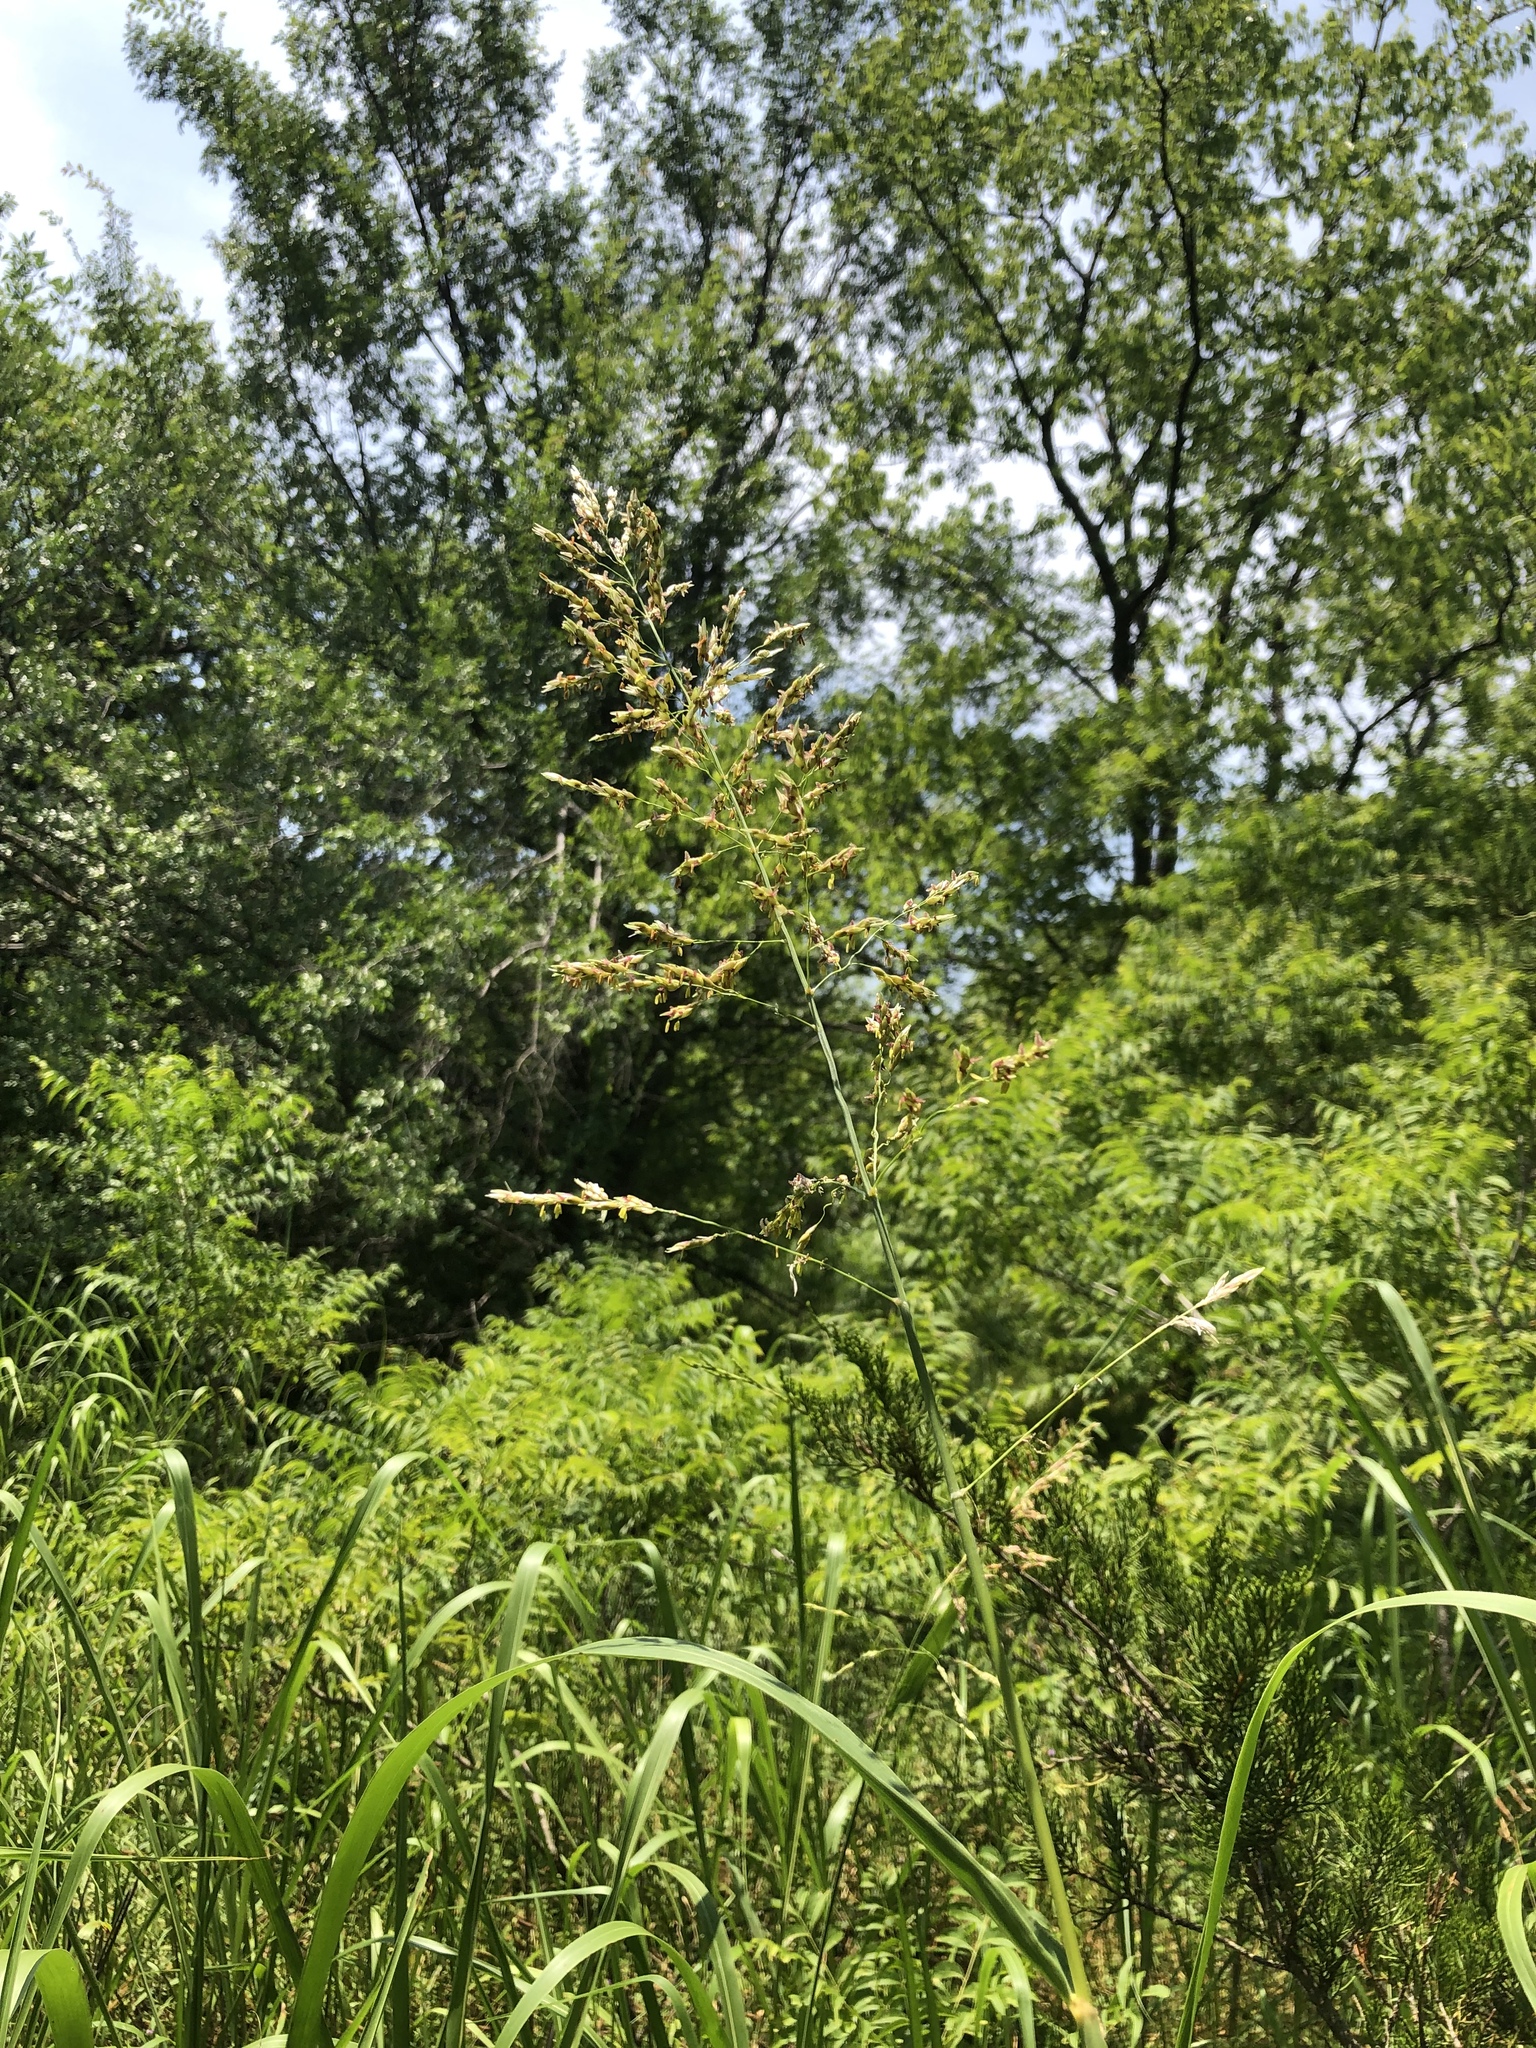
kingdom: Plantae
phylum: Tracheophyta
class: Liliopsida
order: Poales
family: Poaceae
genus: Sorghum
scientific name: Sorghum halepense
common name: Johnson-grass
